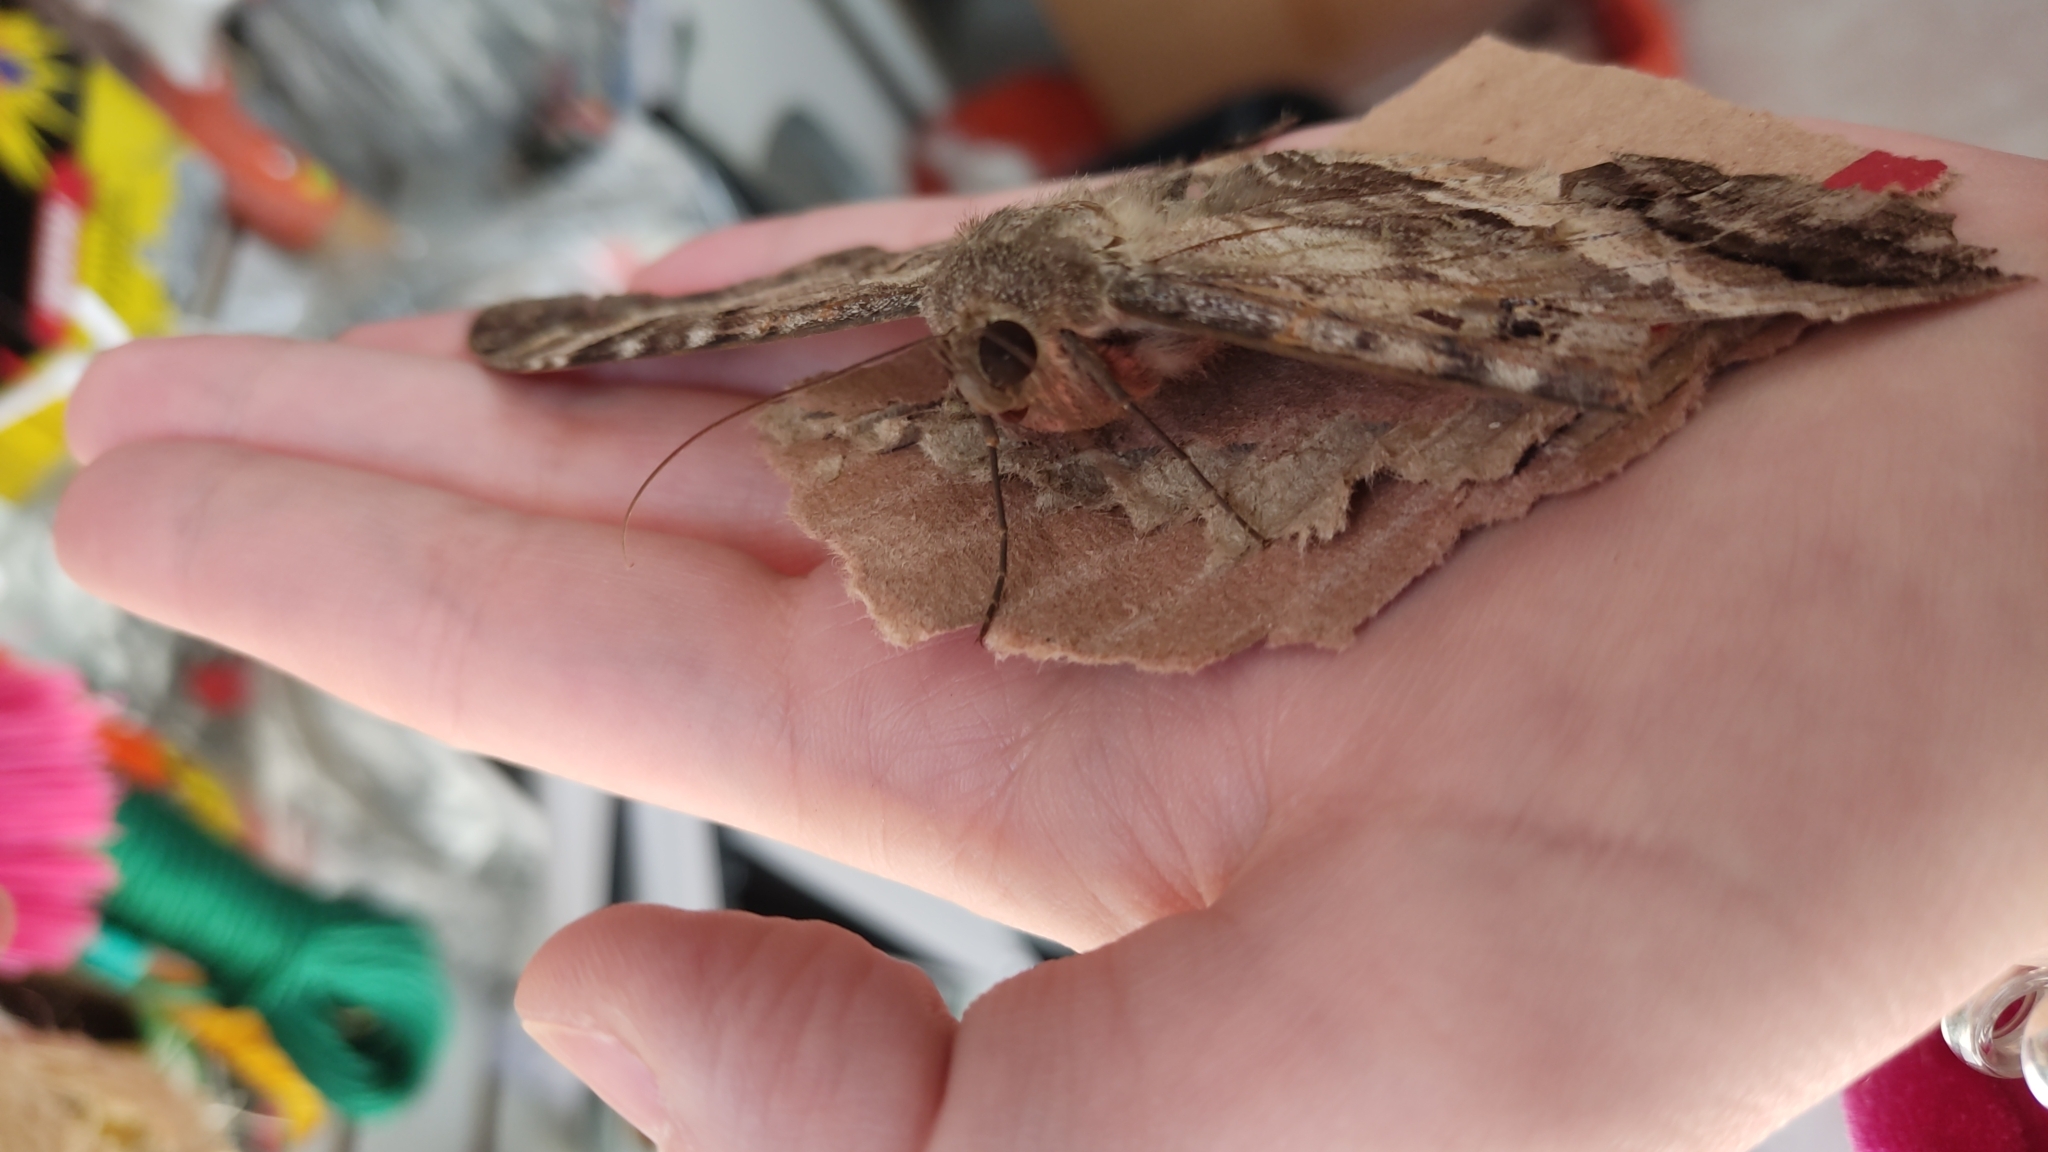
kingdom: Animalia
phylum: Arthropoda
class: Insecta
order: Lepidoptera
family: Erebidae
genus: Ascalapha
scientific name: Ascalapha odorata
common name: Black witch
